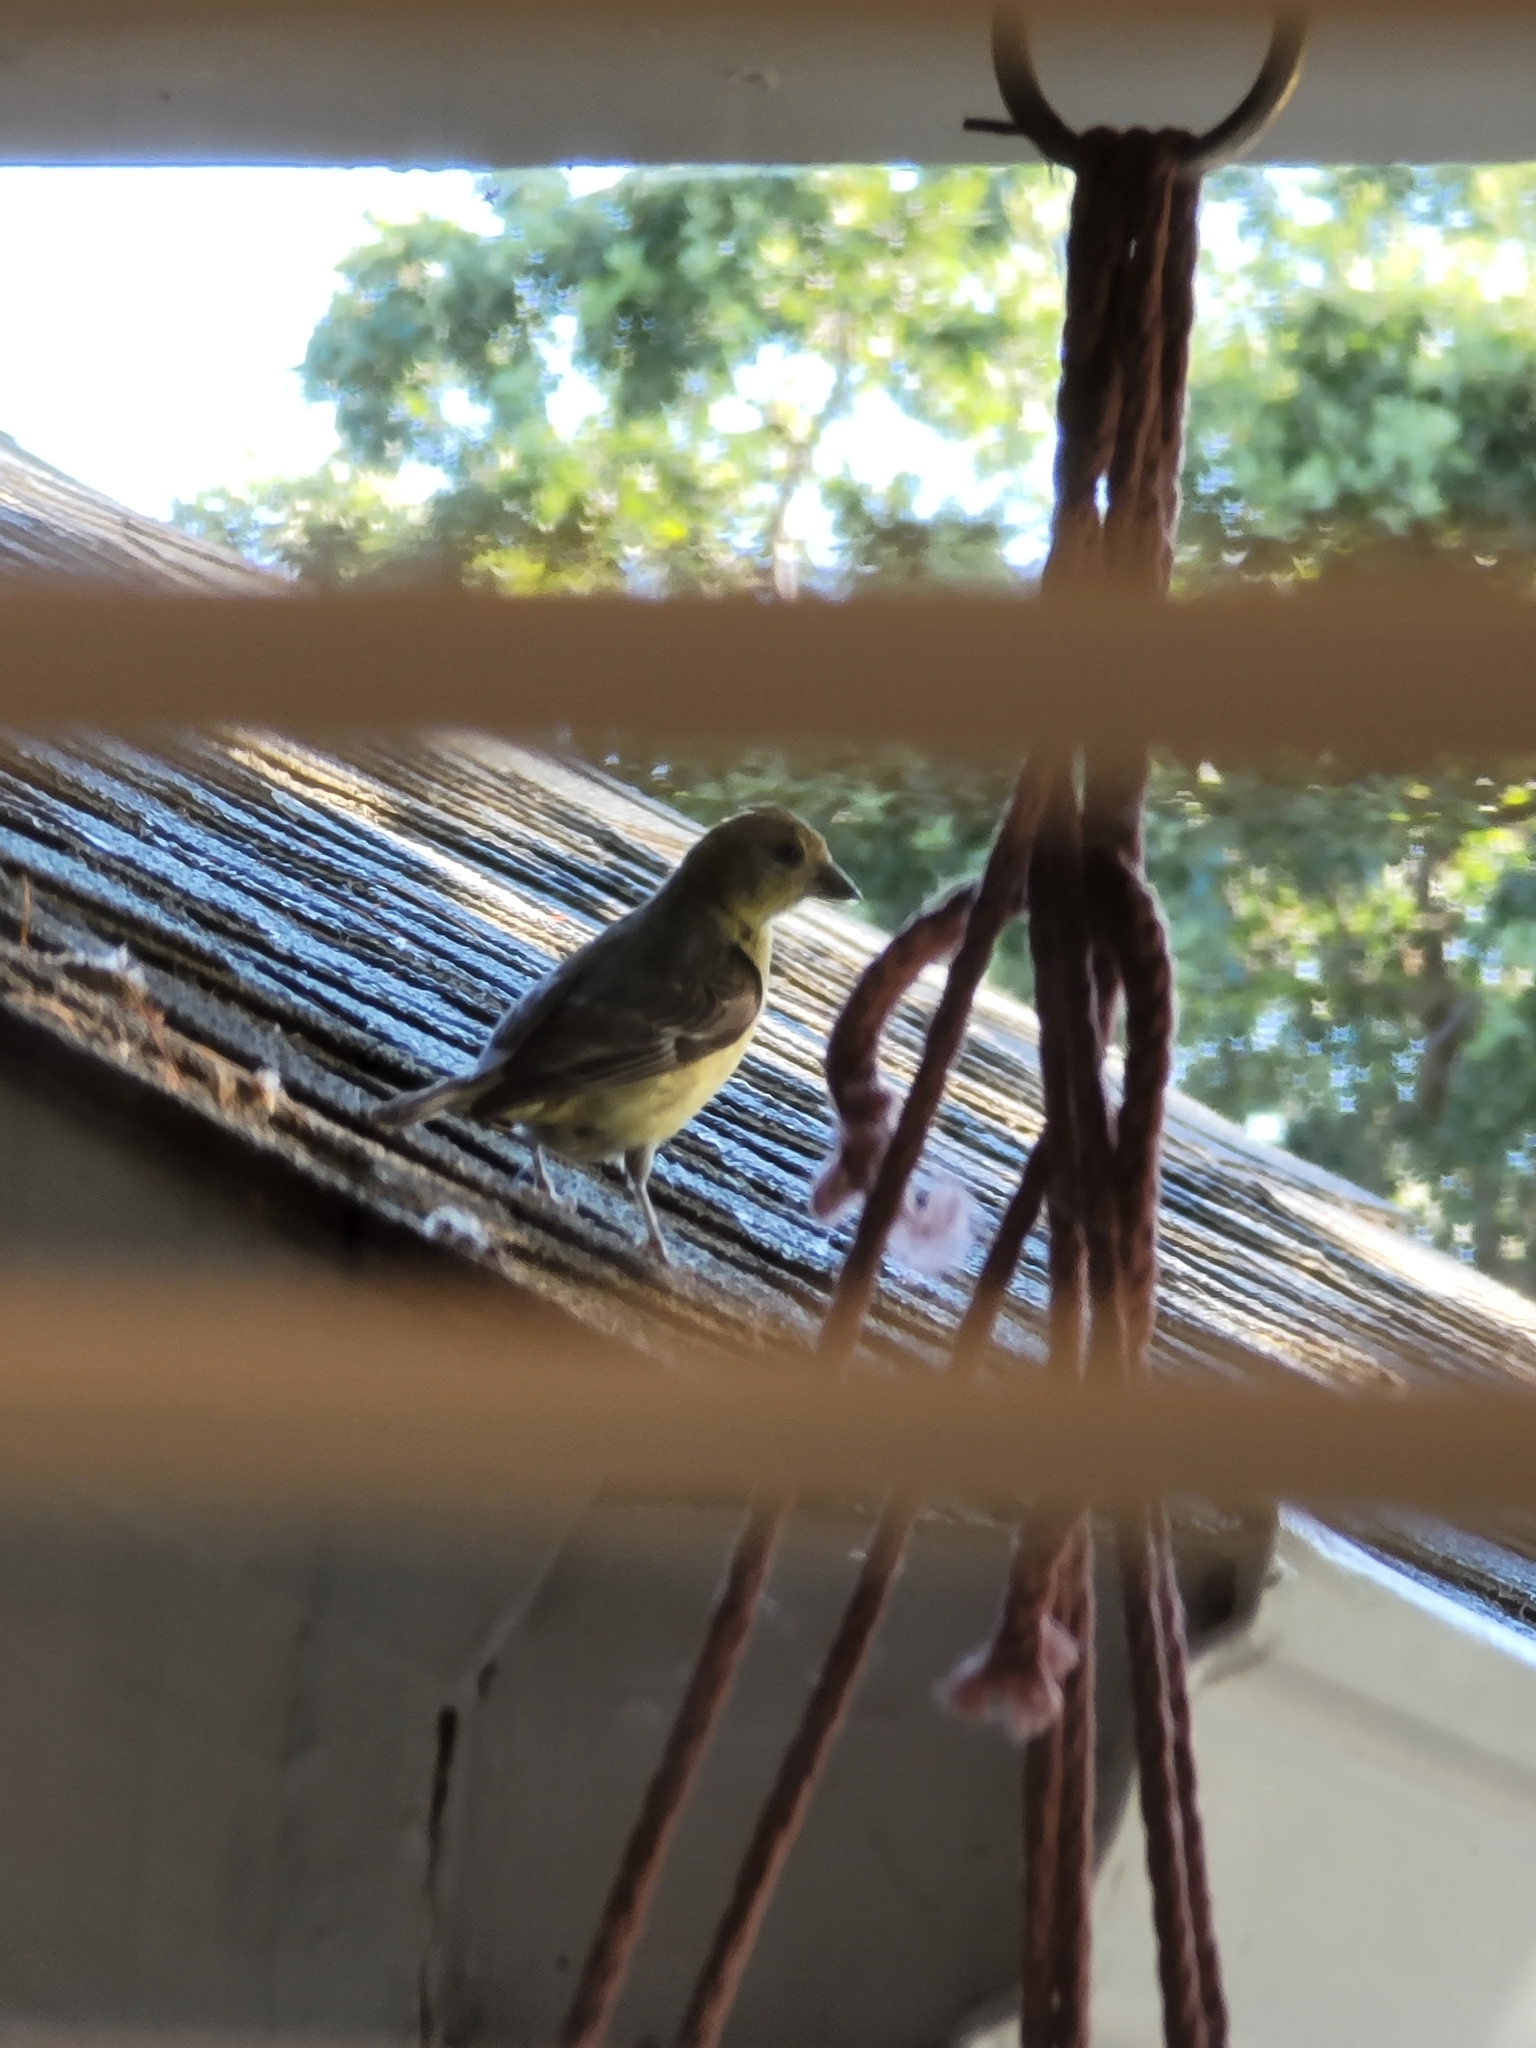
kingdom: Animalia
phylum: Chordata
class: Aves
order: Passeriformes
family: Fringillidae
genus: Spinus
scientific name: Spinus psaltria
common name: Lesser goldfinch
